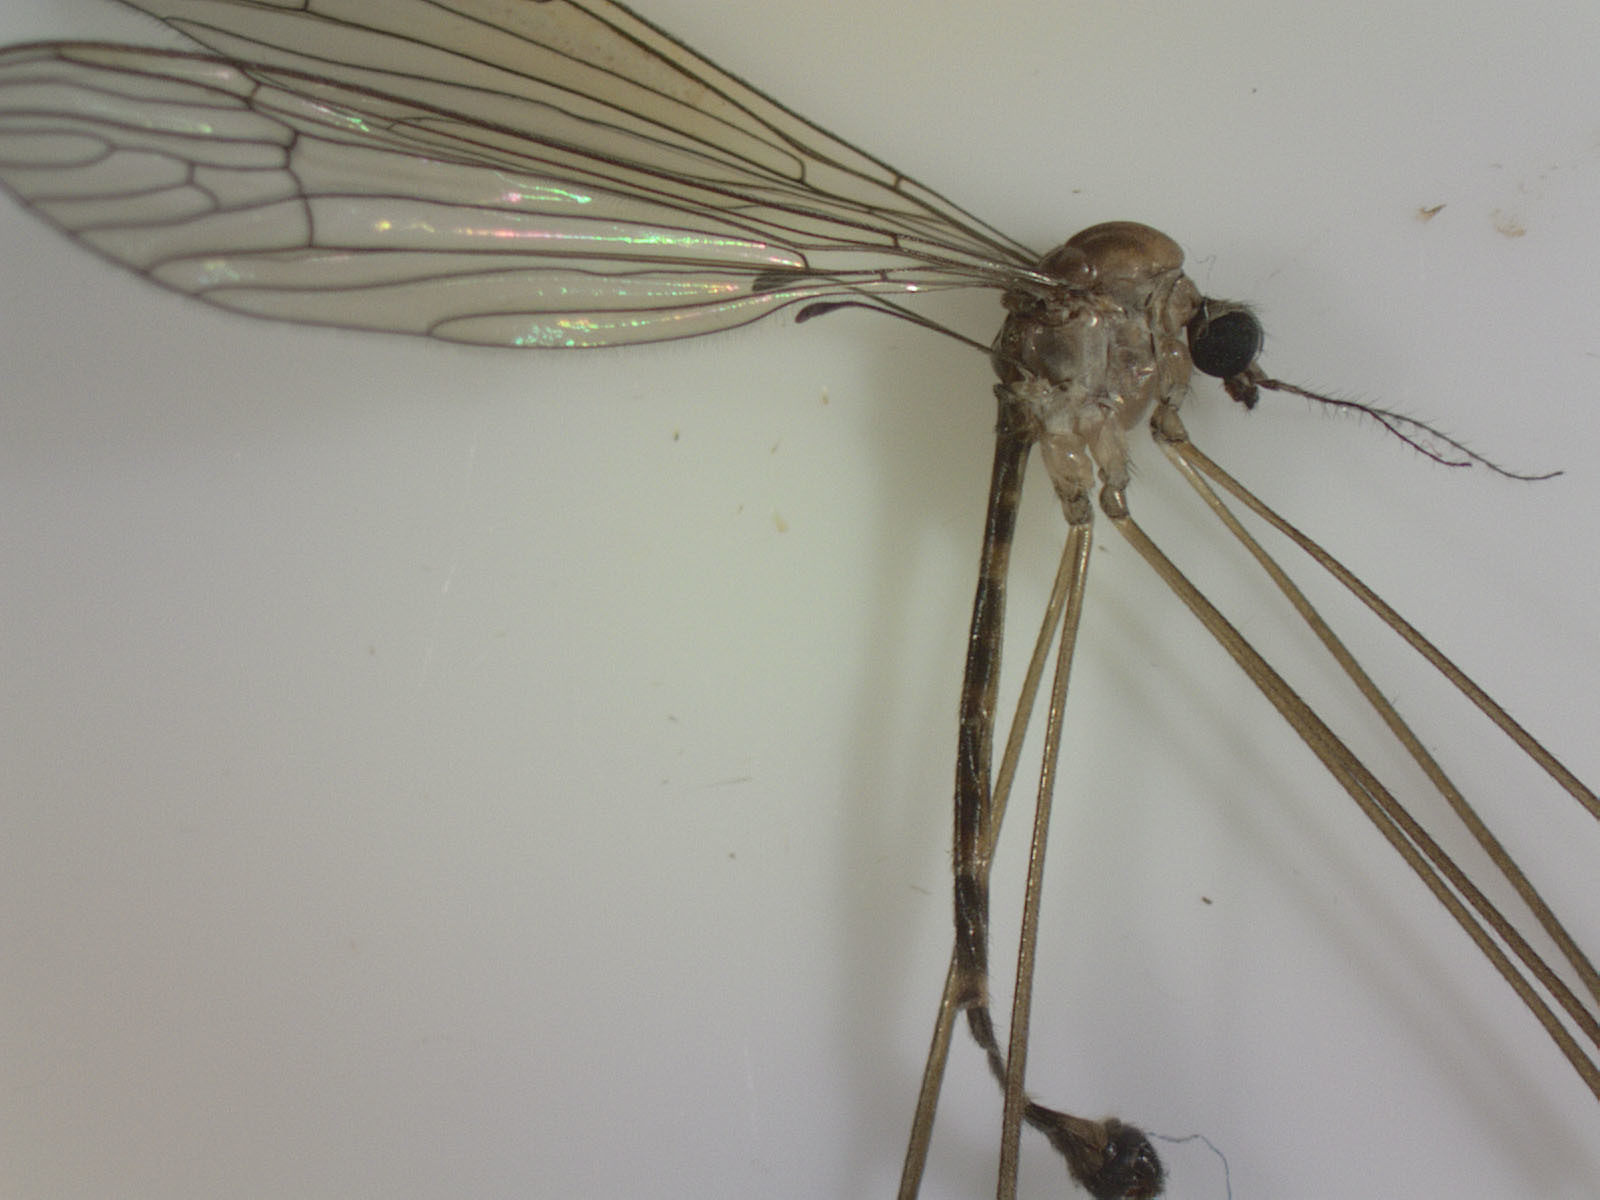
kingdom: Animalia
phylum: Arthropoda
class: Insecta
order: Diptera
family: Limoniidae
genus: Limnophilella
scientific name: Limnophilella delicatula
